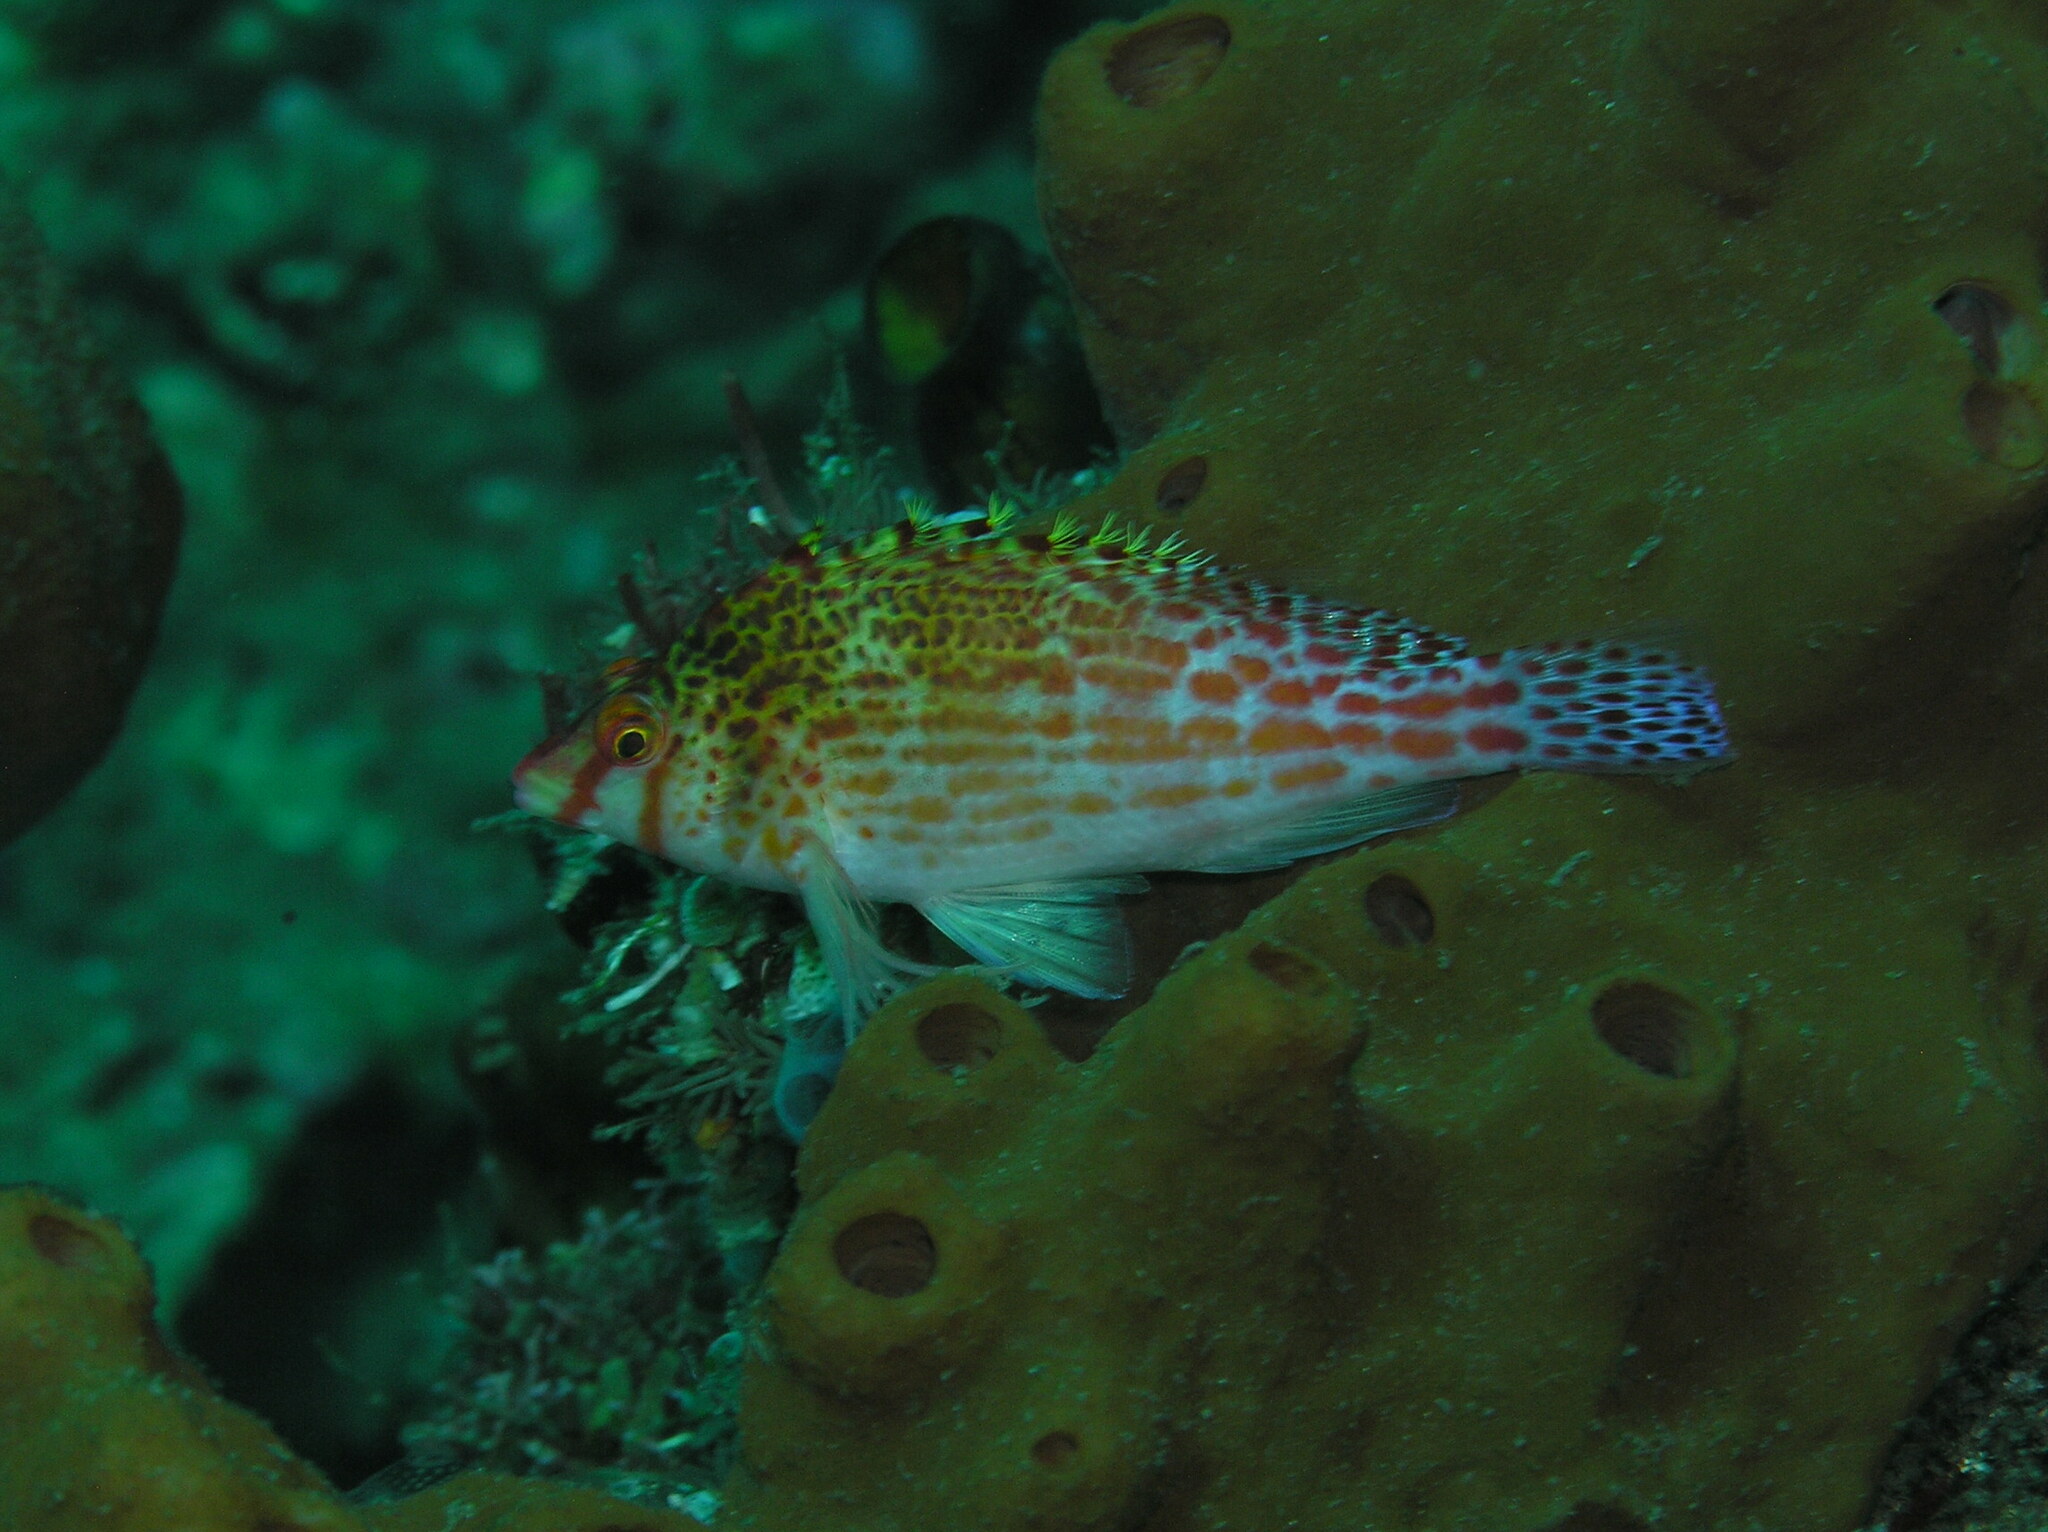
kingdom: Animalia
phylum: Chordata
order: Perciformes
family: Cirrhitidae
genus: Cirrhitichthys
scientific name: Cirrhitichthys falco
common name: Coral hawkfish
